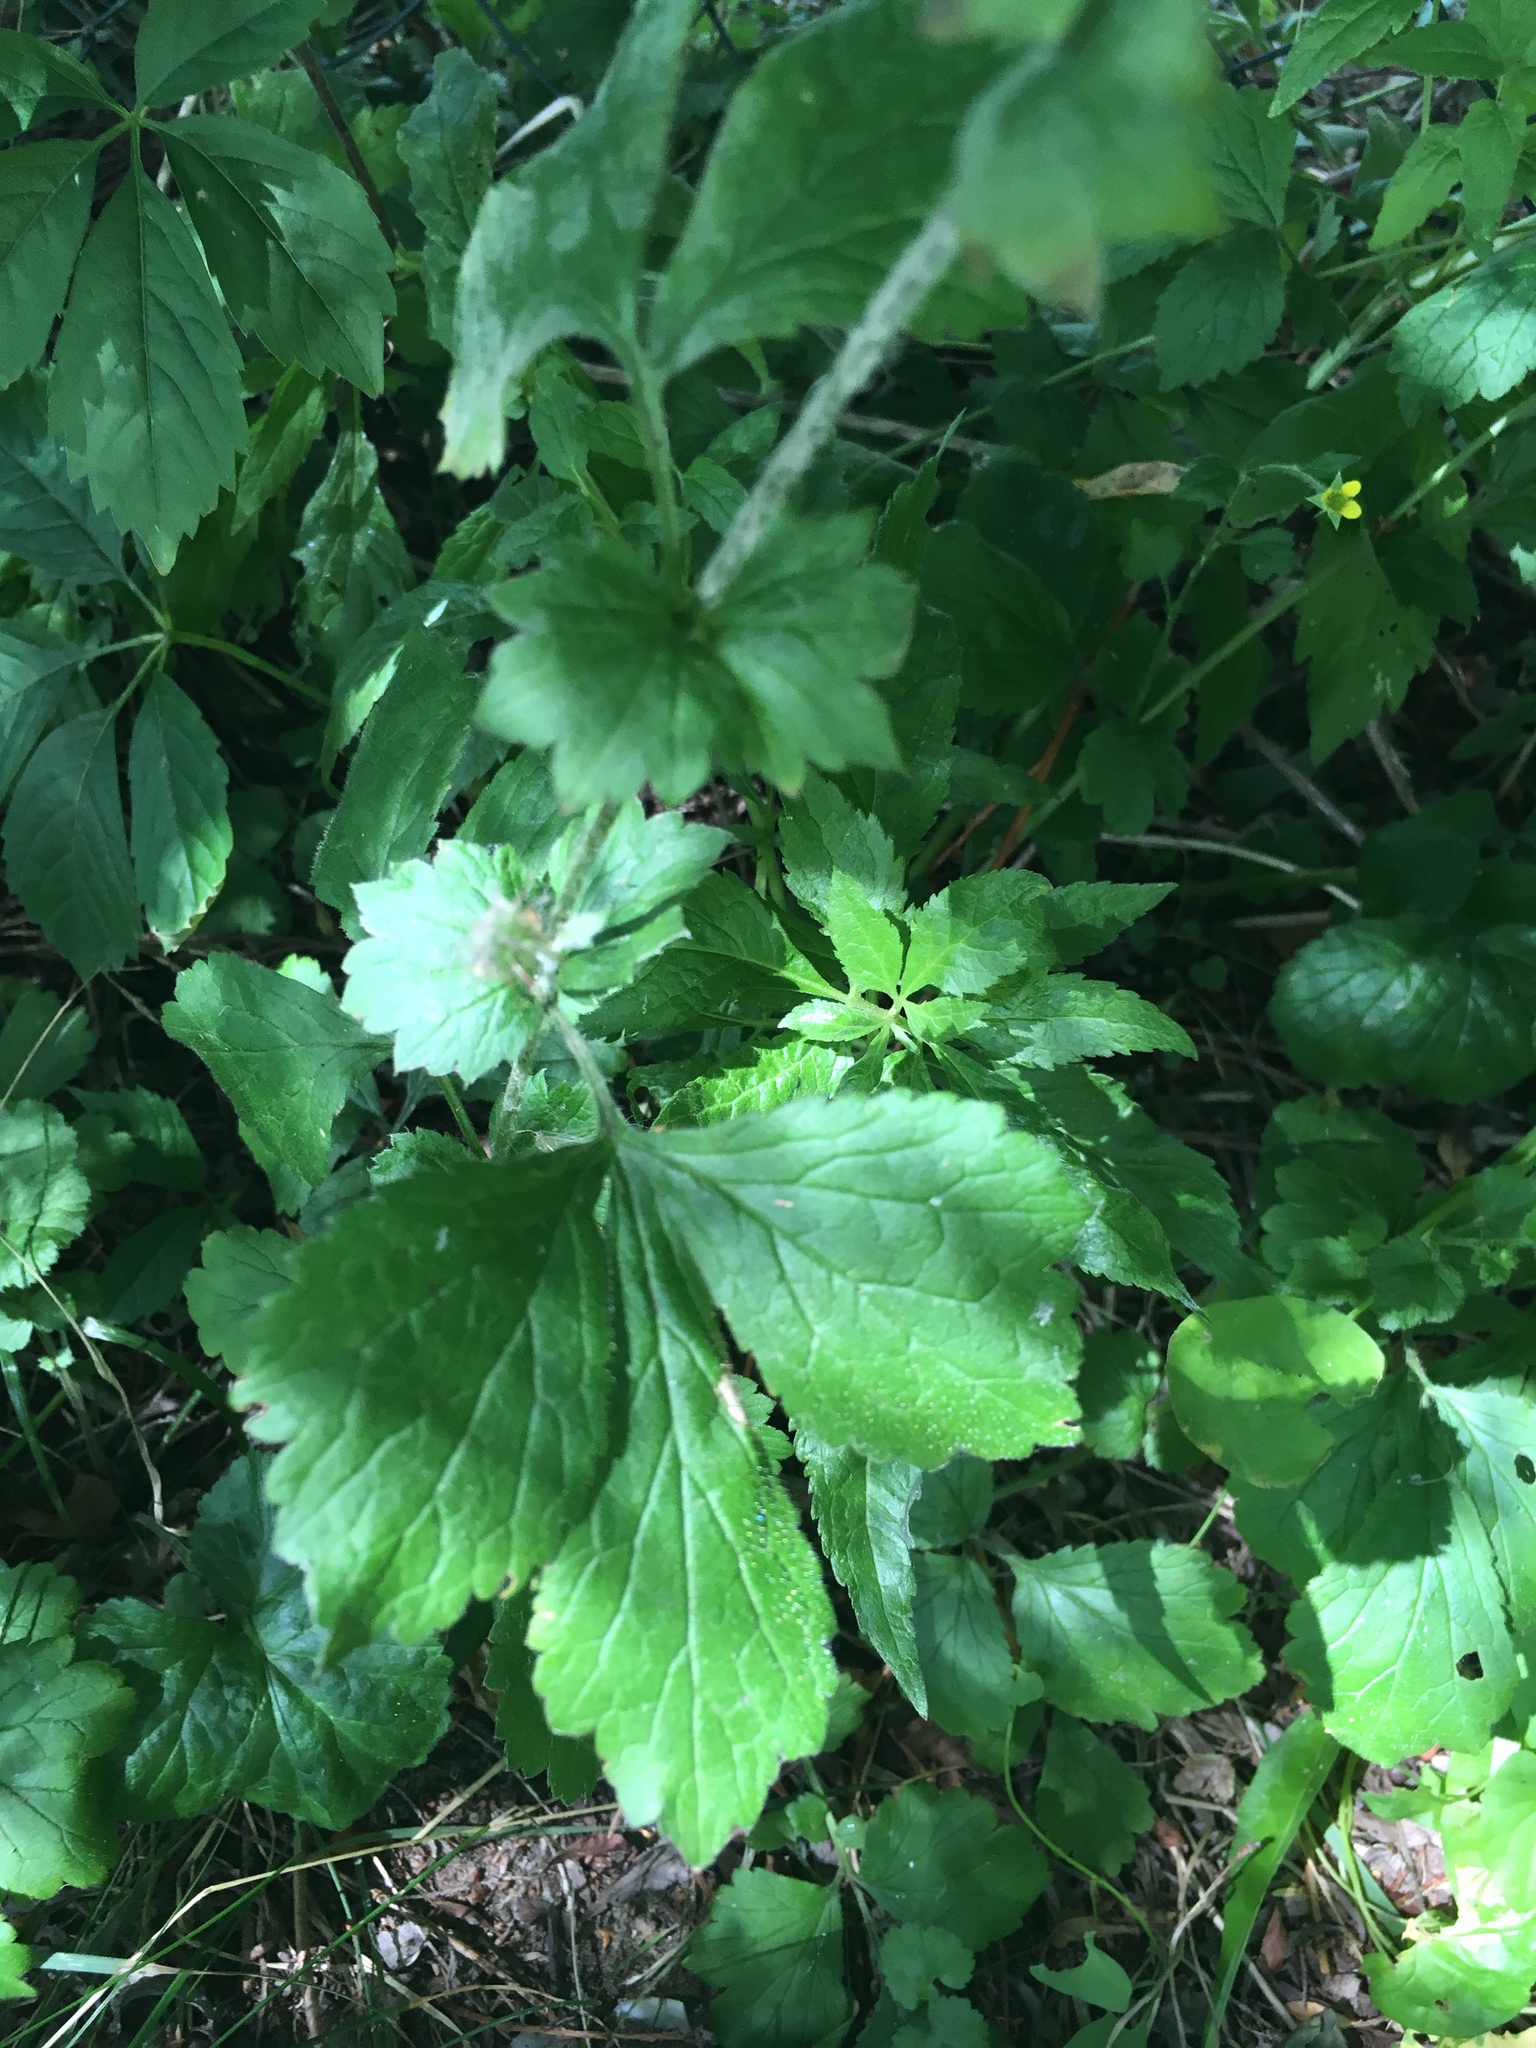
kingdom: Plantae
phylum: Tracheophyta
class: Magnoliopsida
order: Rosales
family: Rosaceae
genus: Geum
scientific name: Geum urbanum
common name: Wood avens
